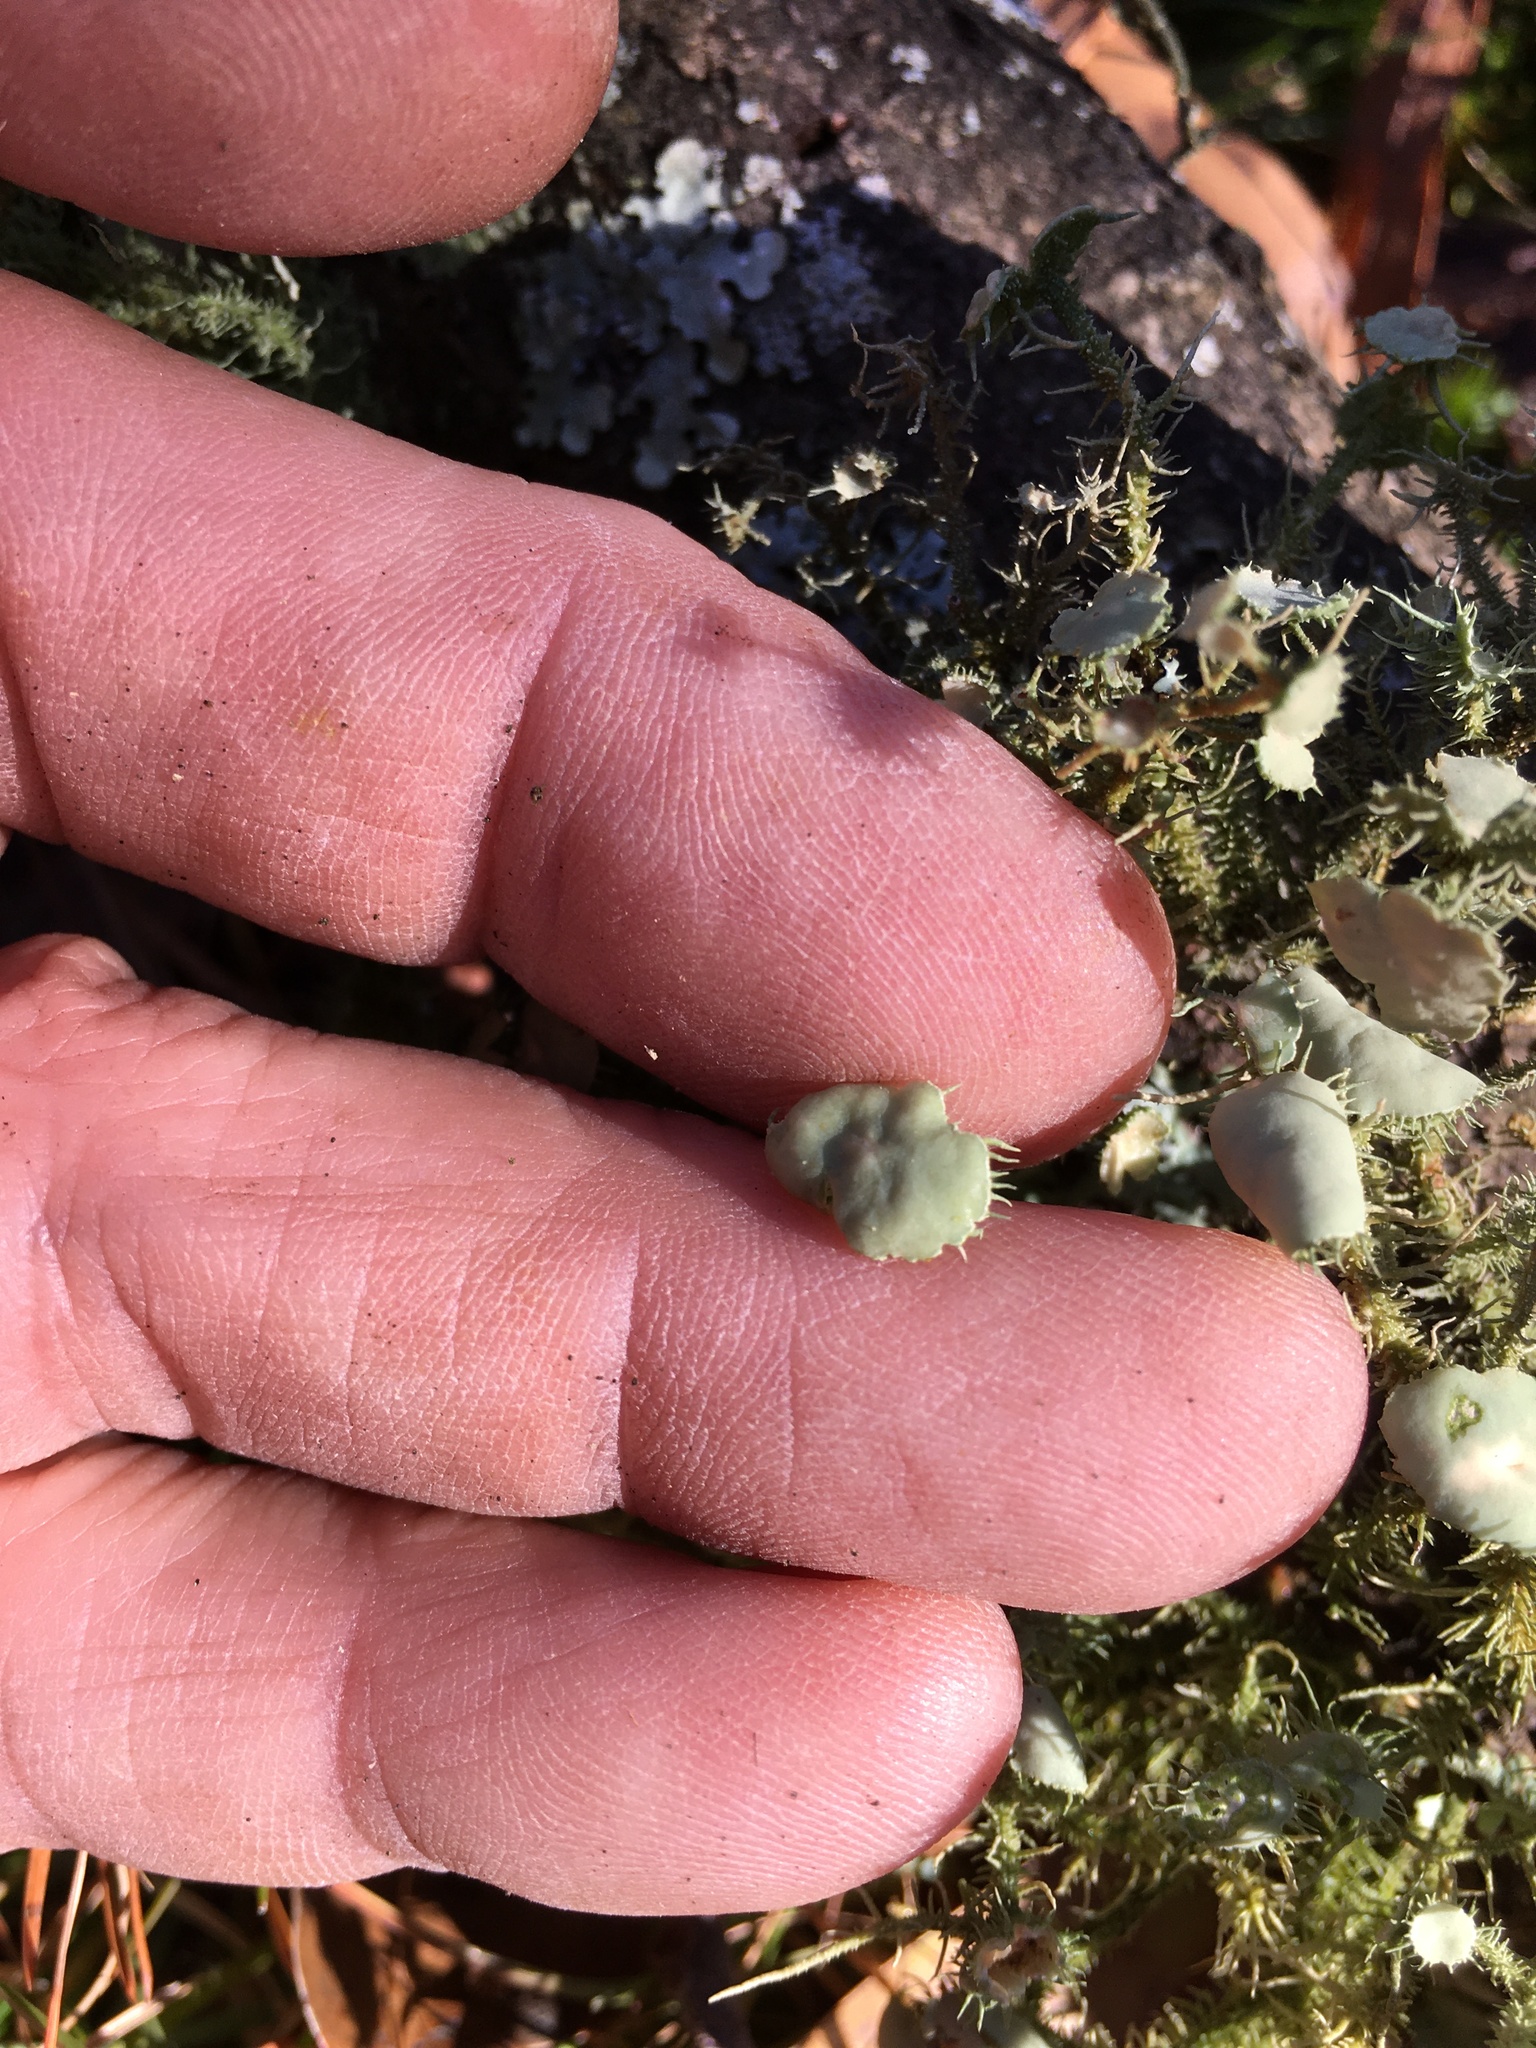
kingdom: Fungi
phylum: Ascomycota
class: Lecanoromycetes
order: Lecanorales
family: Parmeliaceae
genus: Usnea
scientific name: Usnea strigosa
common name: Bushy beard lichen
